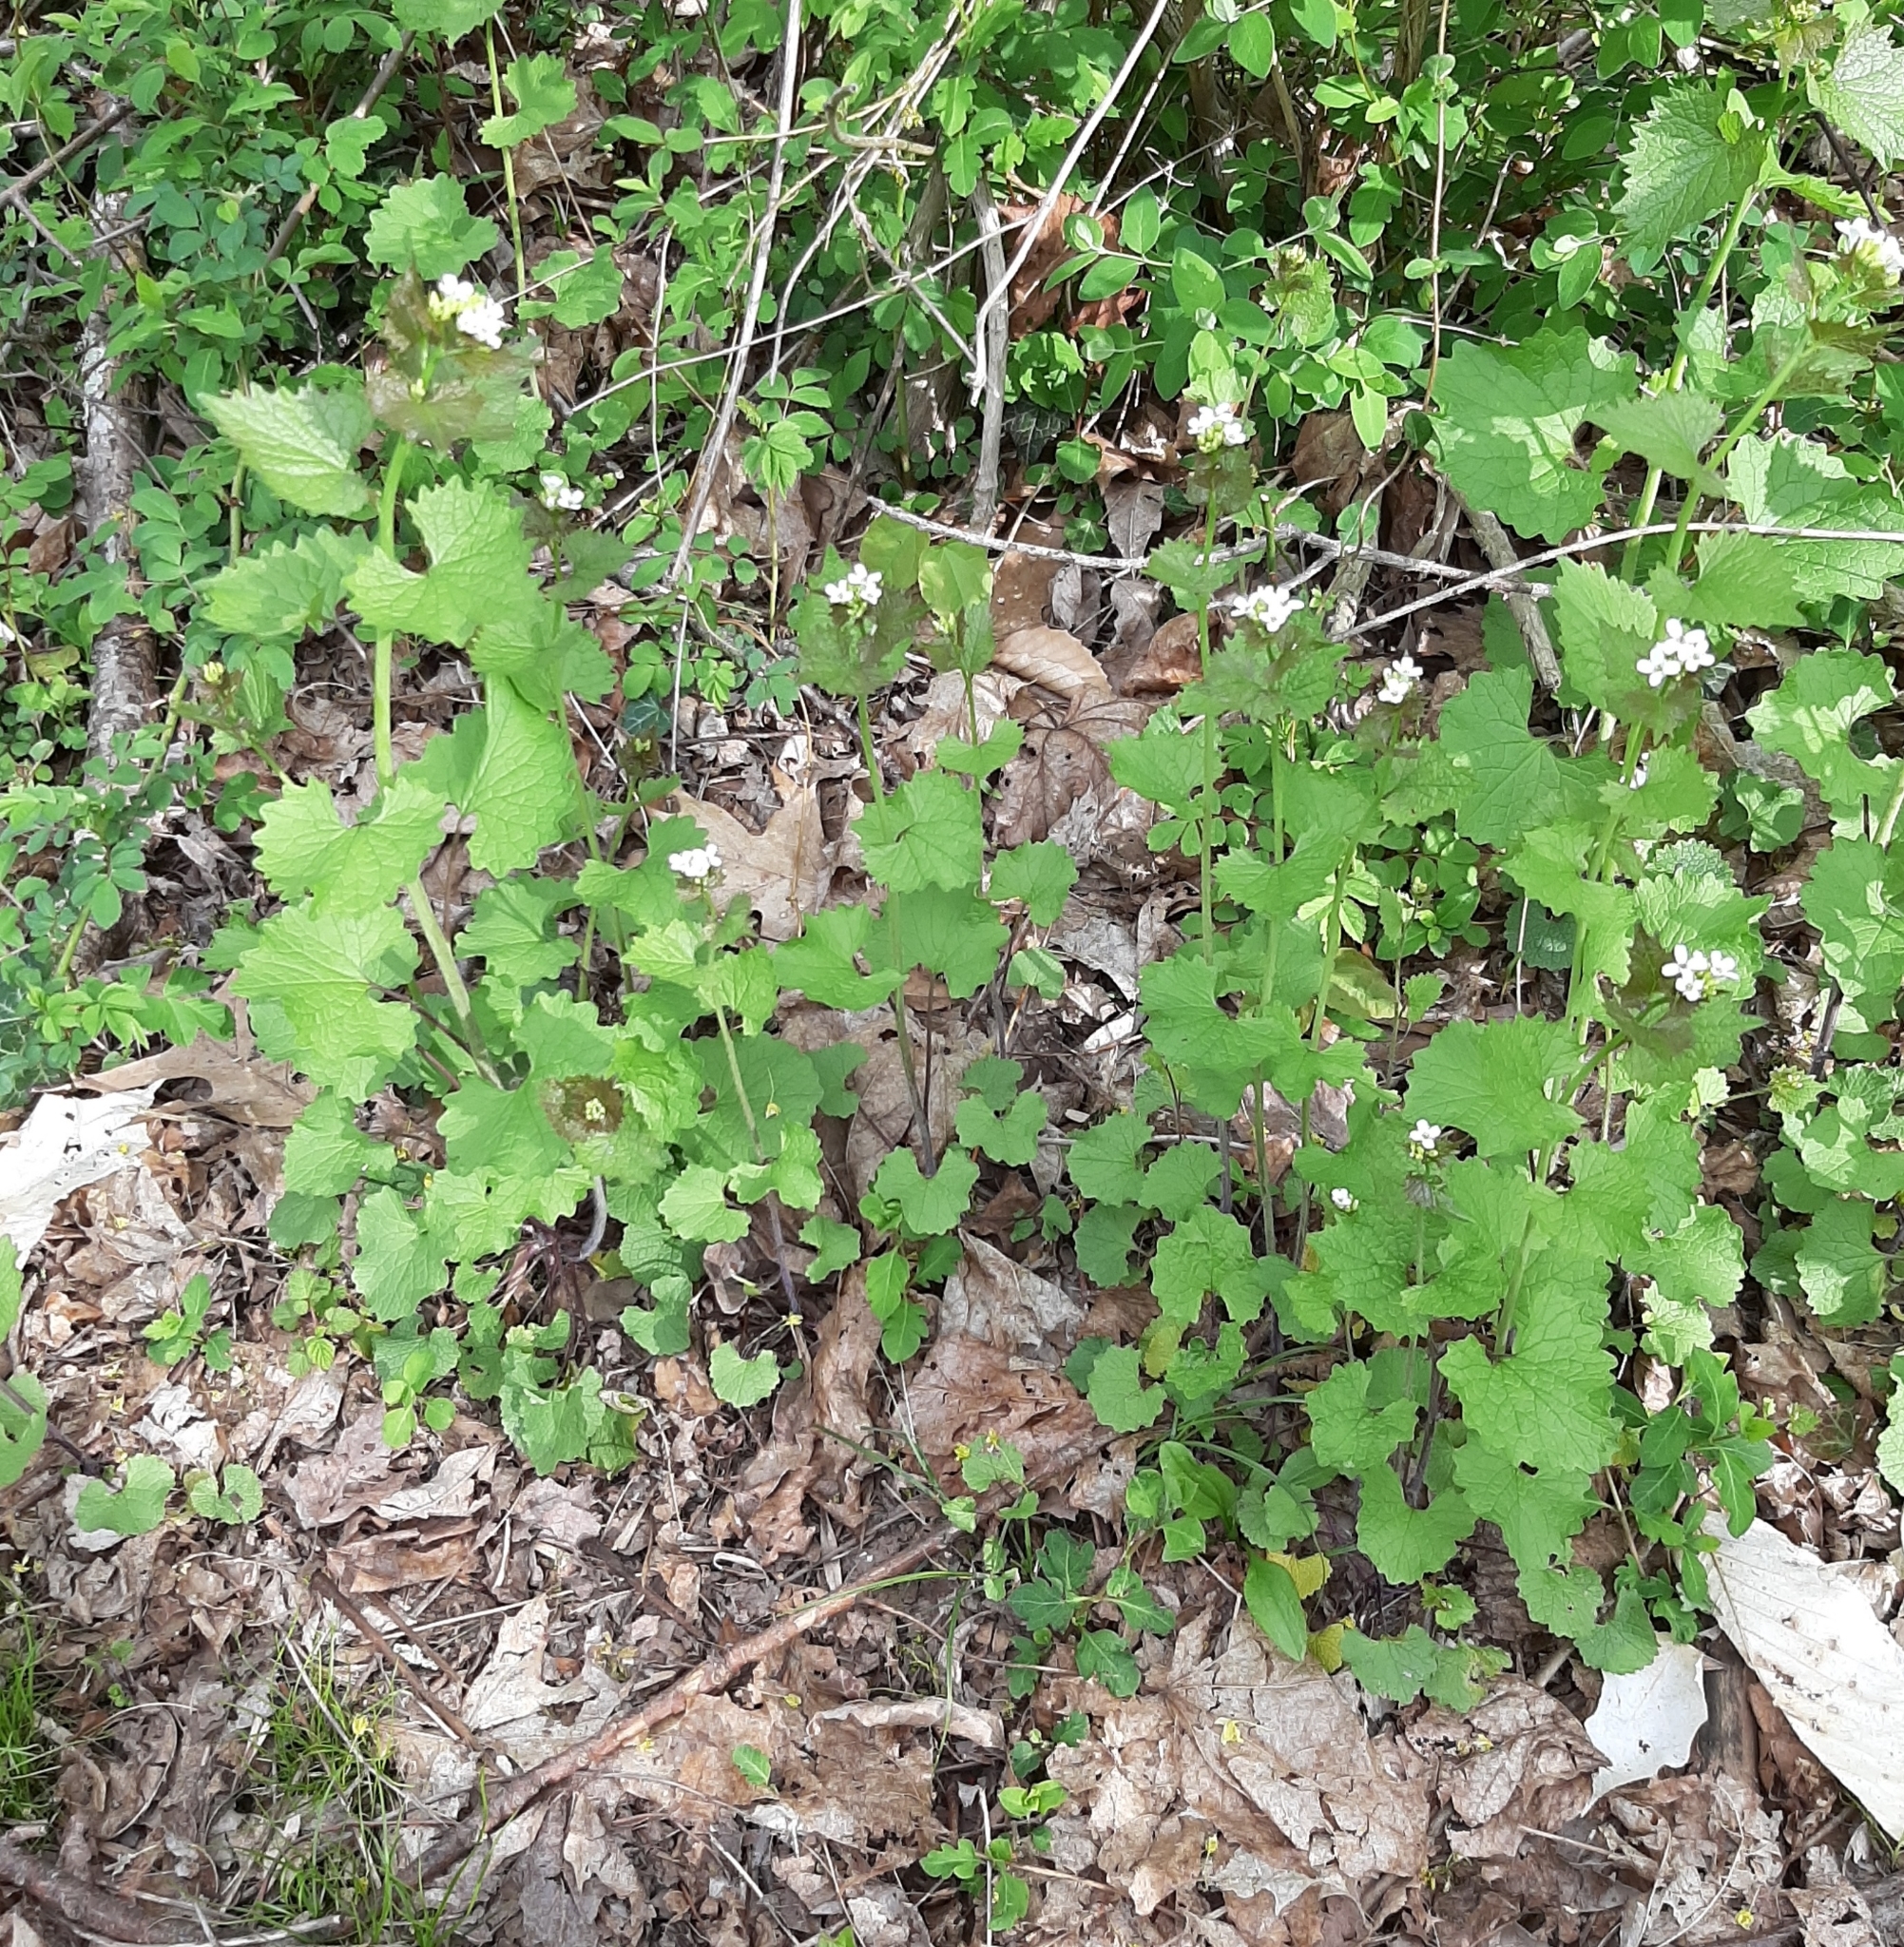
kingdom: Plantae
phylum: Tracheophyta
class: Magnoliopsida
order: Brassicales
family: Brassicaceae
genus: Alliaria
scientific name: Alliaria petiolata
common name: Garlic mustard
